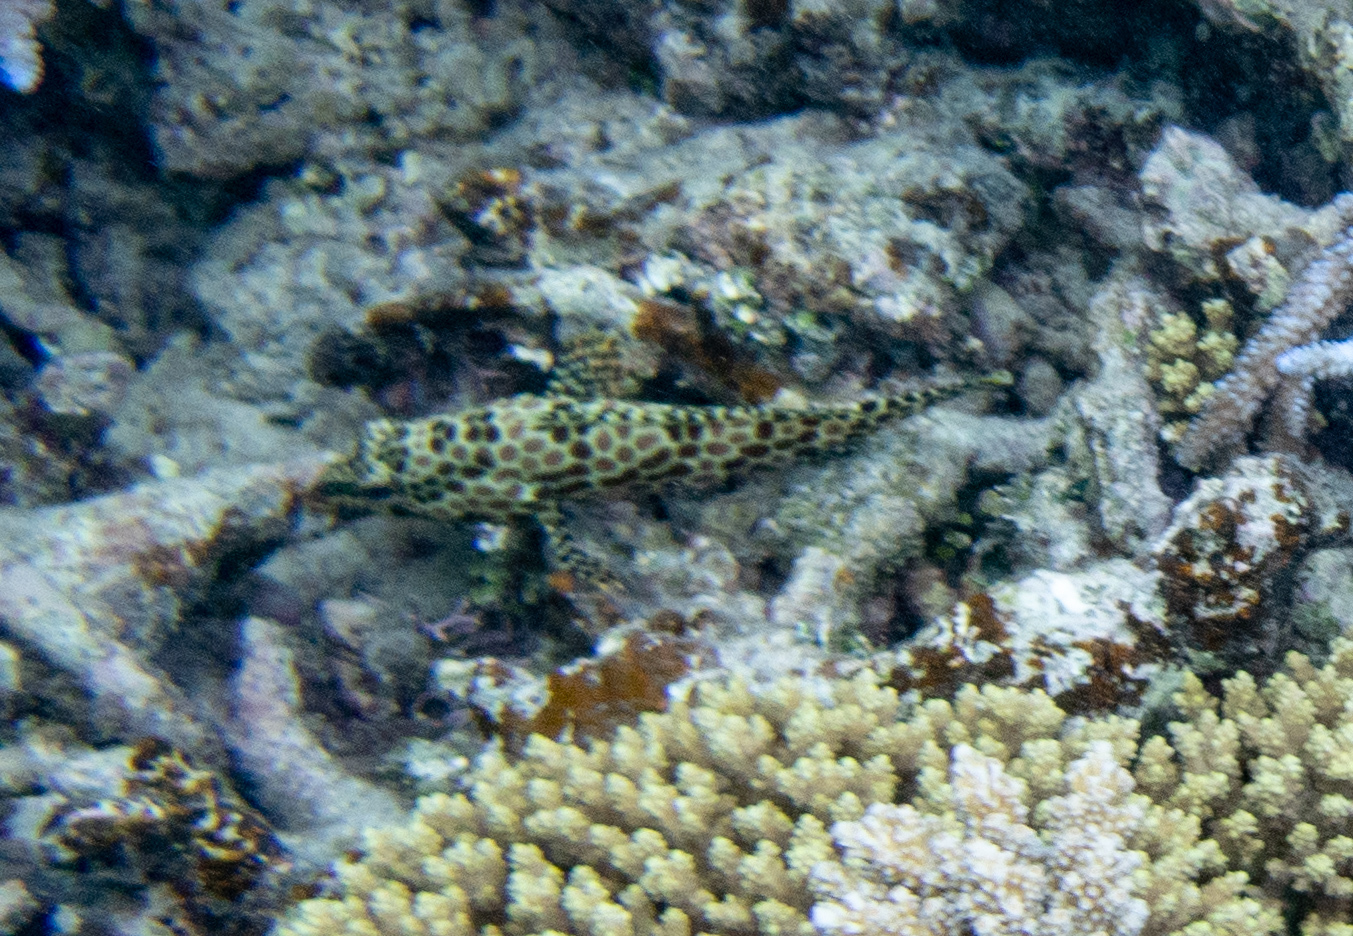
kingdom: Animalia
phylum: Chordata
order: Perciformes
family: Serranidae
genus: Epinephelus
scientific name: Epinephelus merra
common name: Honeycomb grouper
